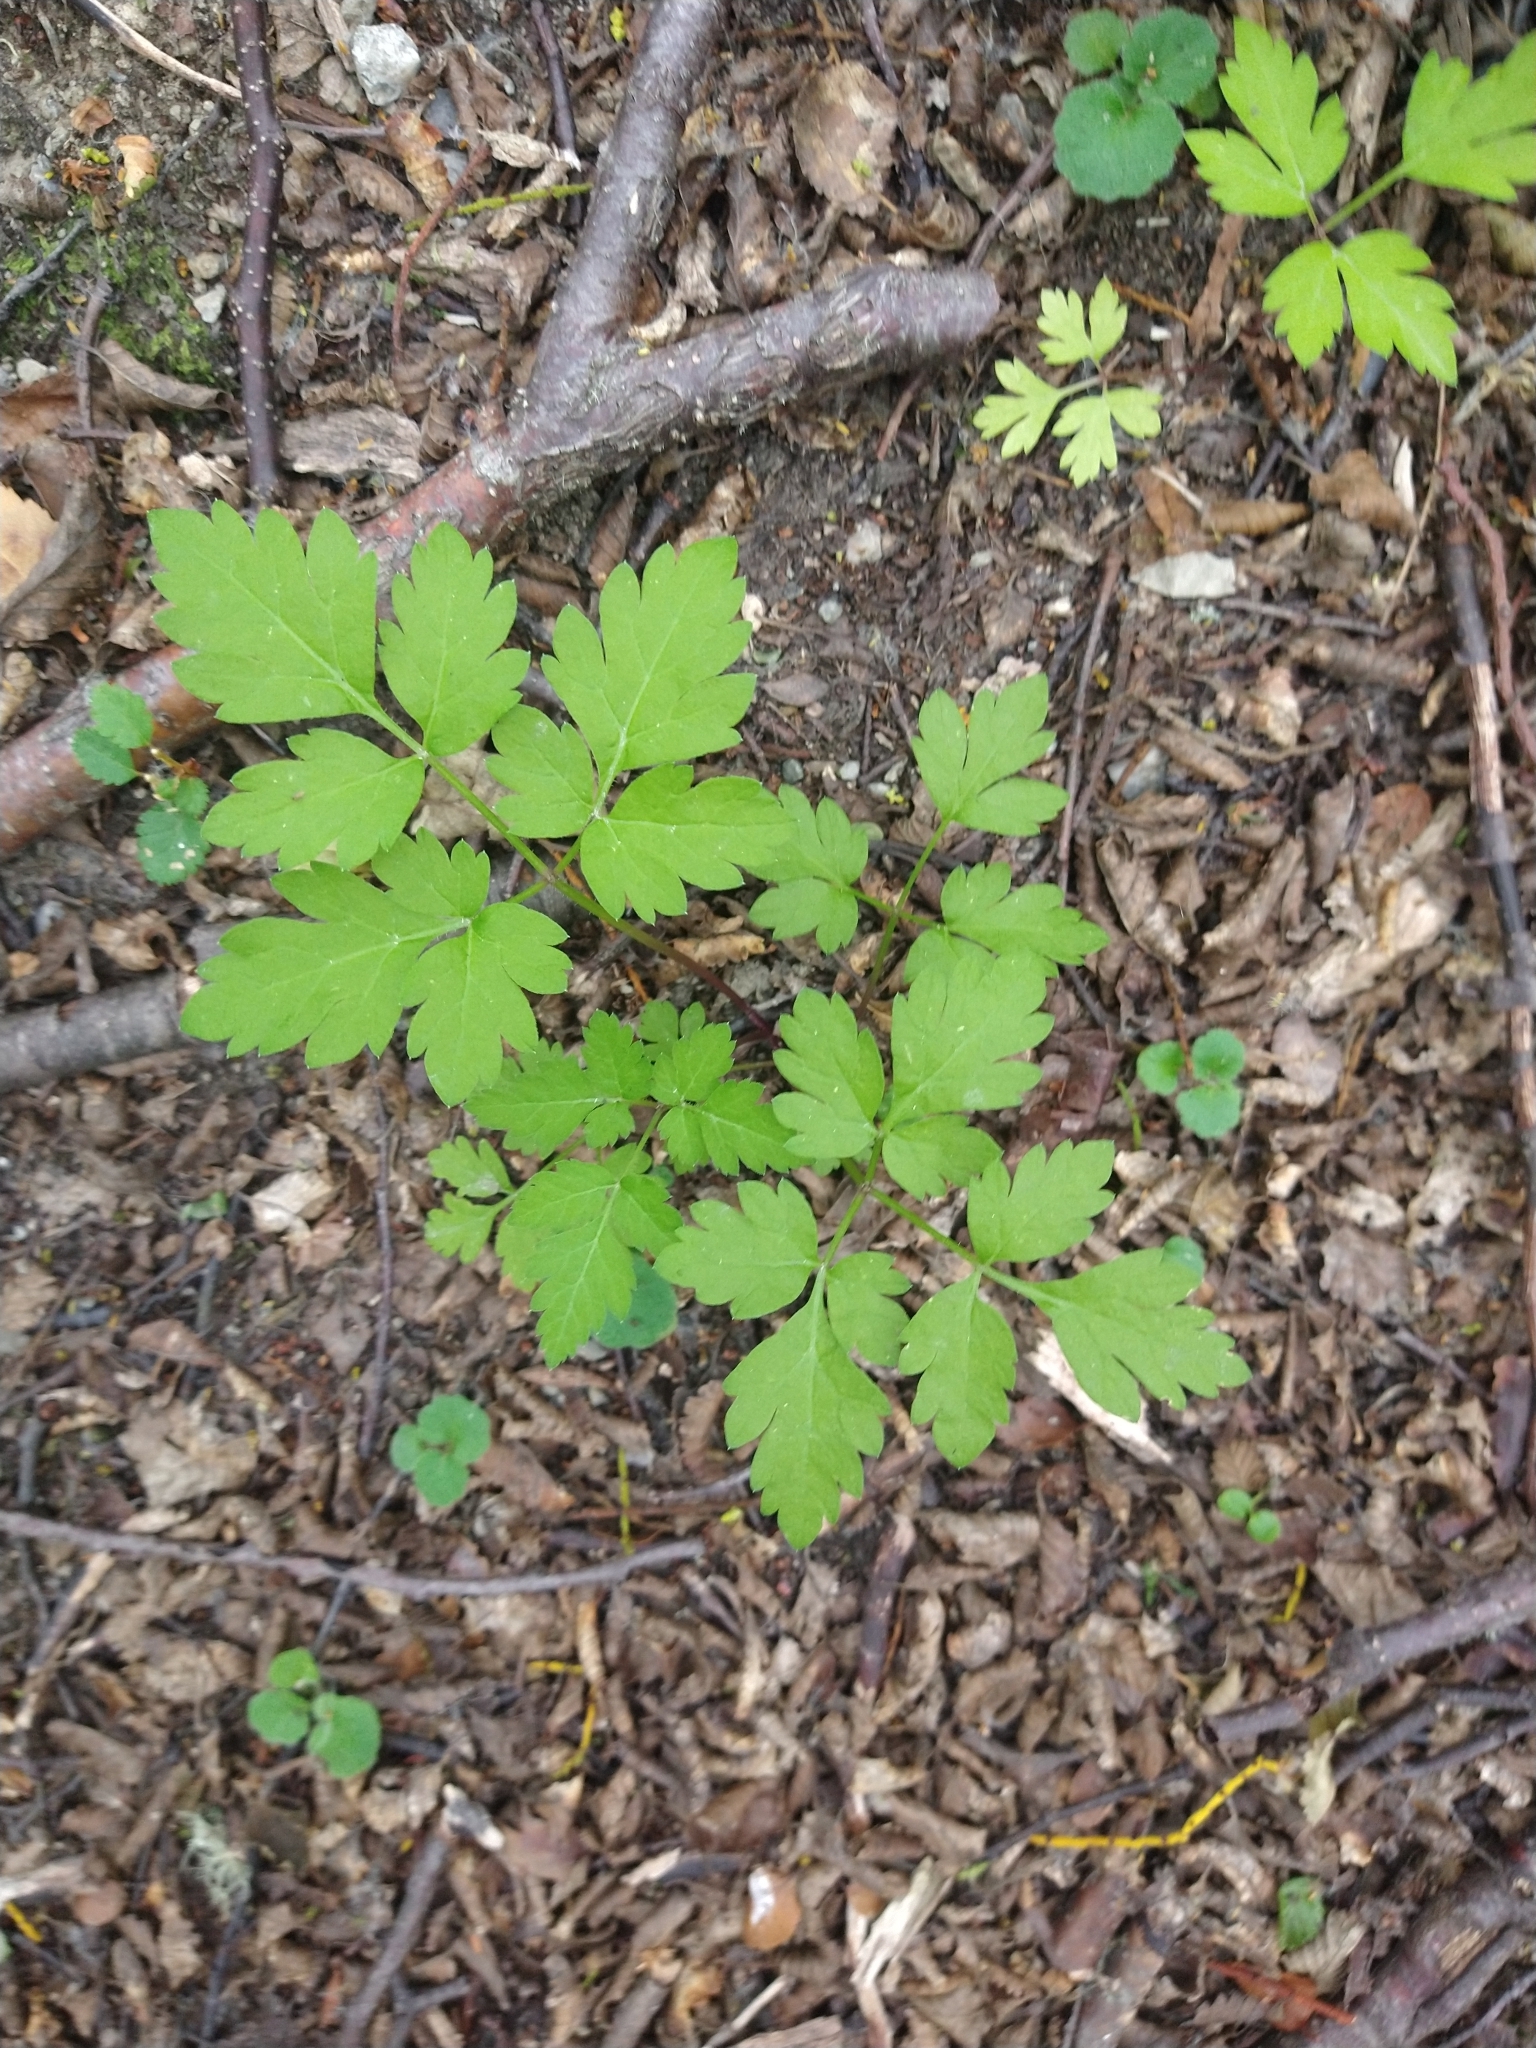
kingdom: Plantae
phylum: Tracheophyta
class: Magnoliopsida
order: Apiales
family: Apiaceae
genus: Osmorhiza
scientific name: Osmorhiza berteroi
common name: Mountain sweet cicely
